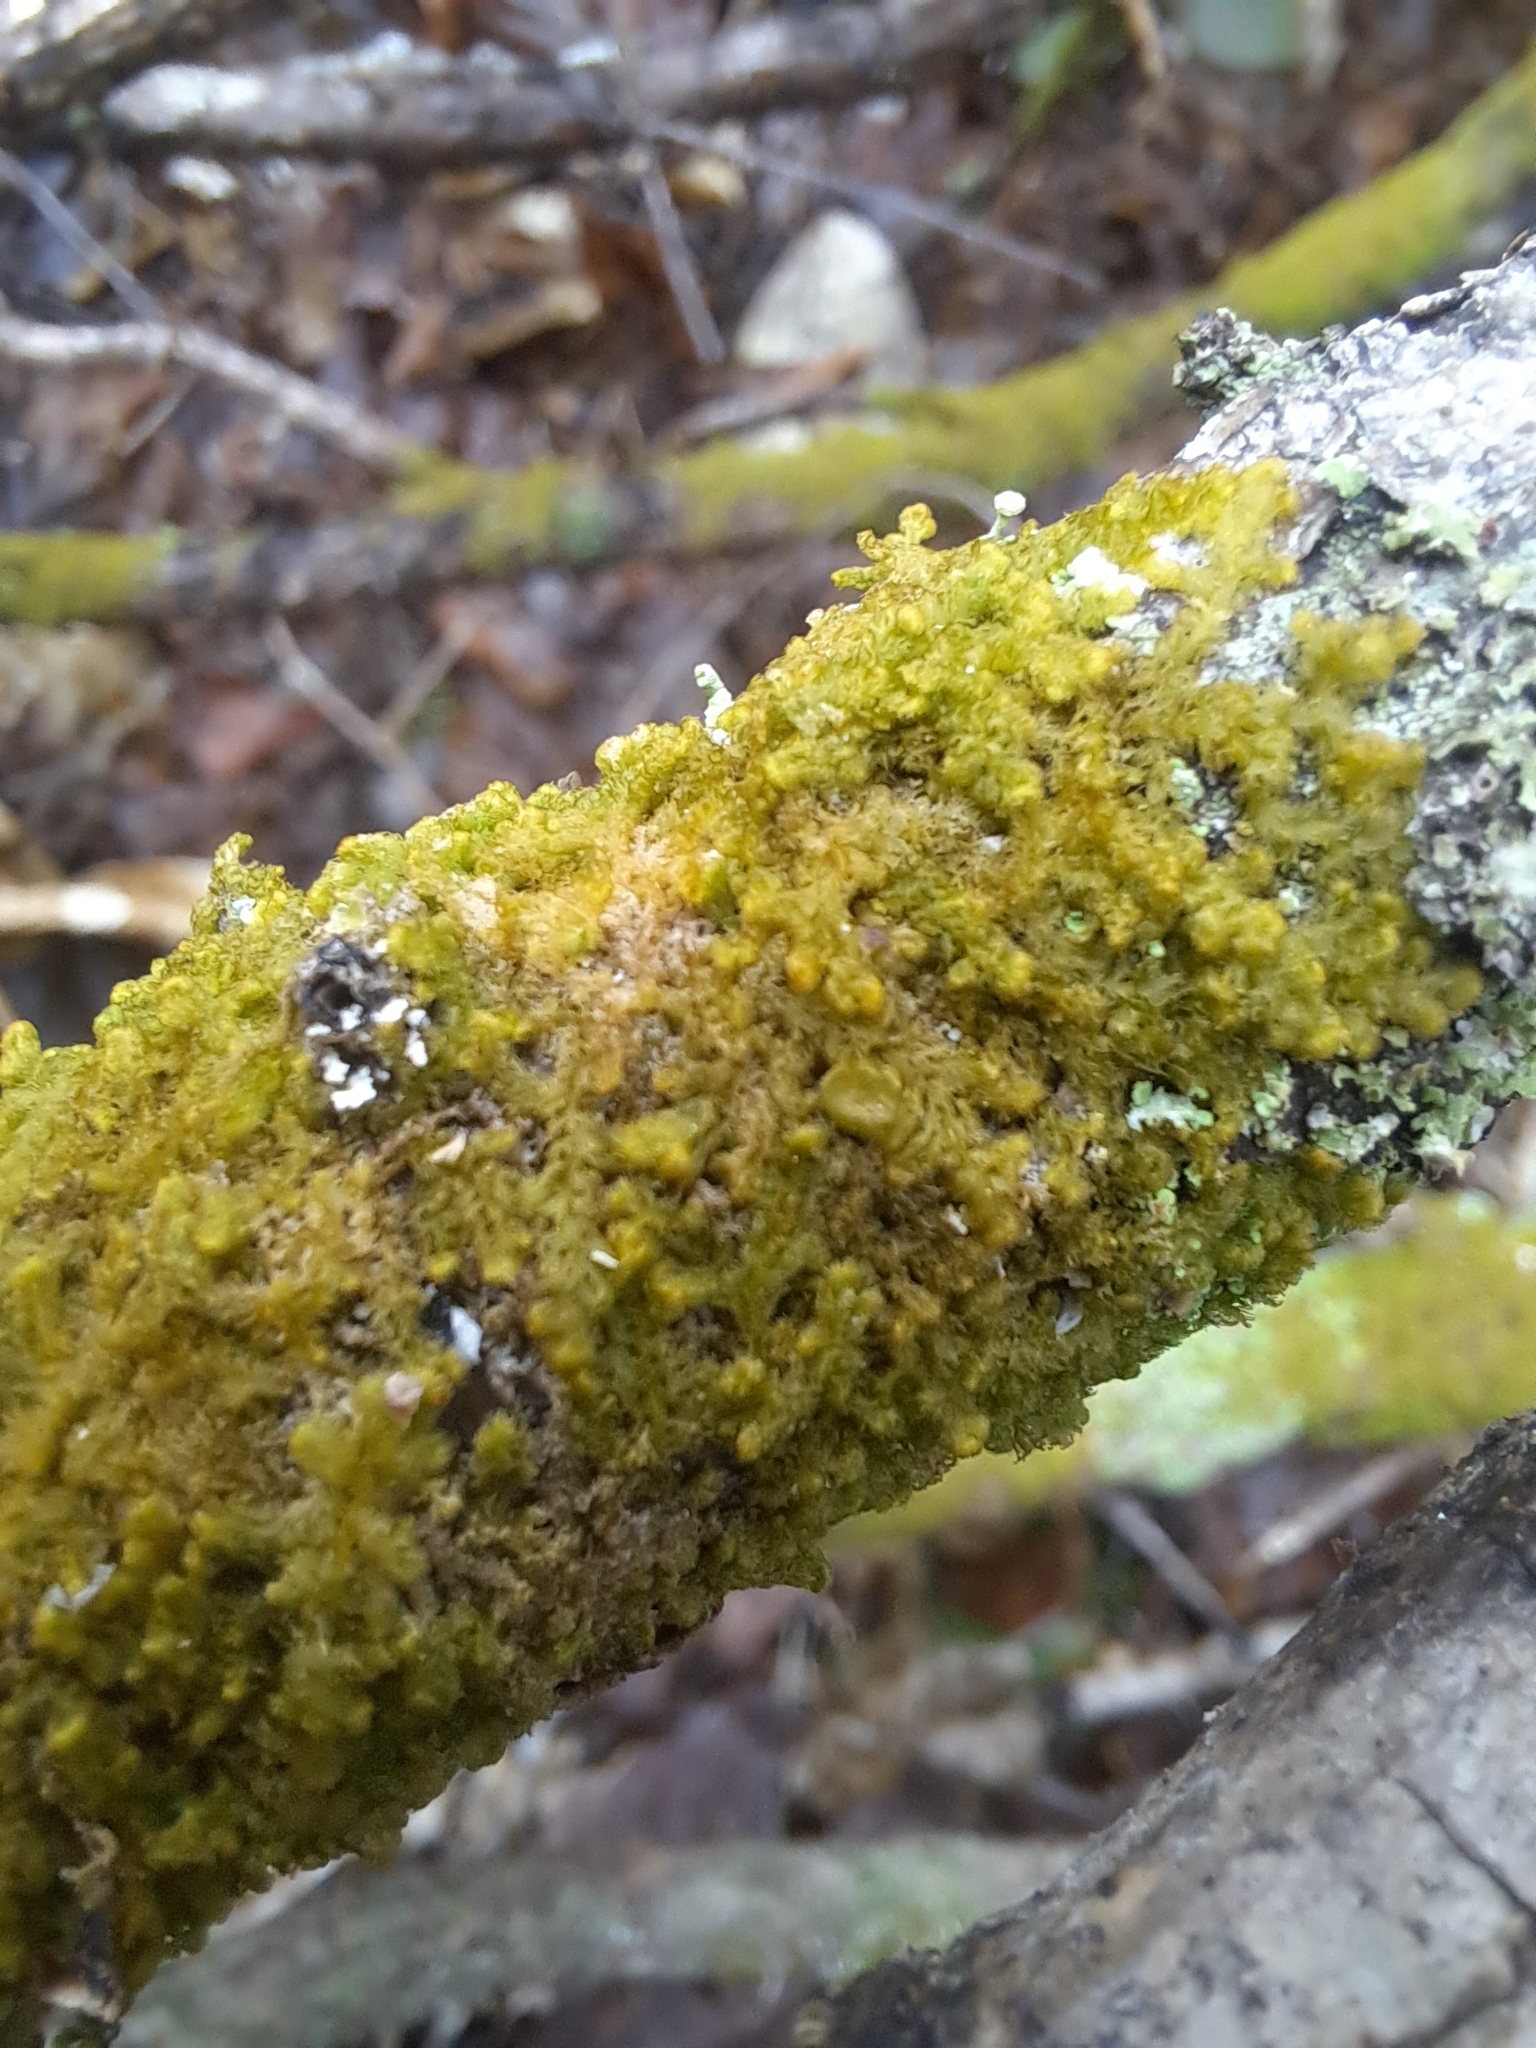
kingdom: Plantae
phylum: Marchantiophyta
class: Jungermanniopsida
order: Ptilidiales
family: Ptilidiaceae
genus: Ptilidium
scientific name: Ptilidium pulcherrimum
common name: Tree fringewort
